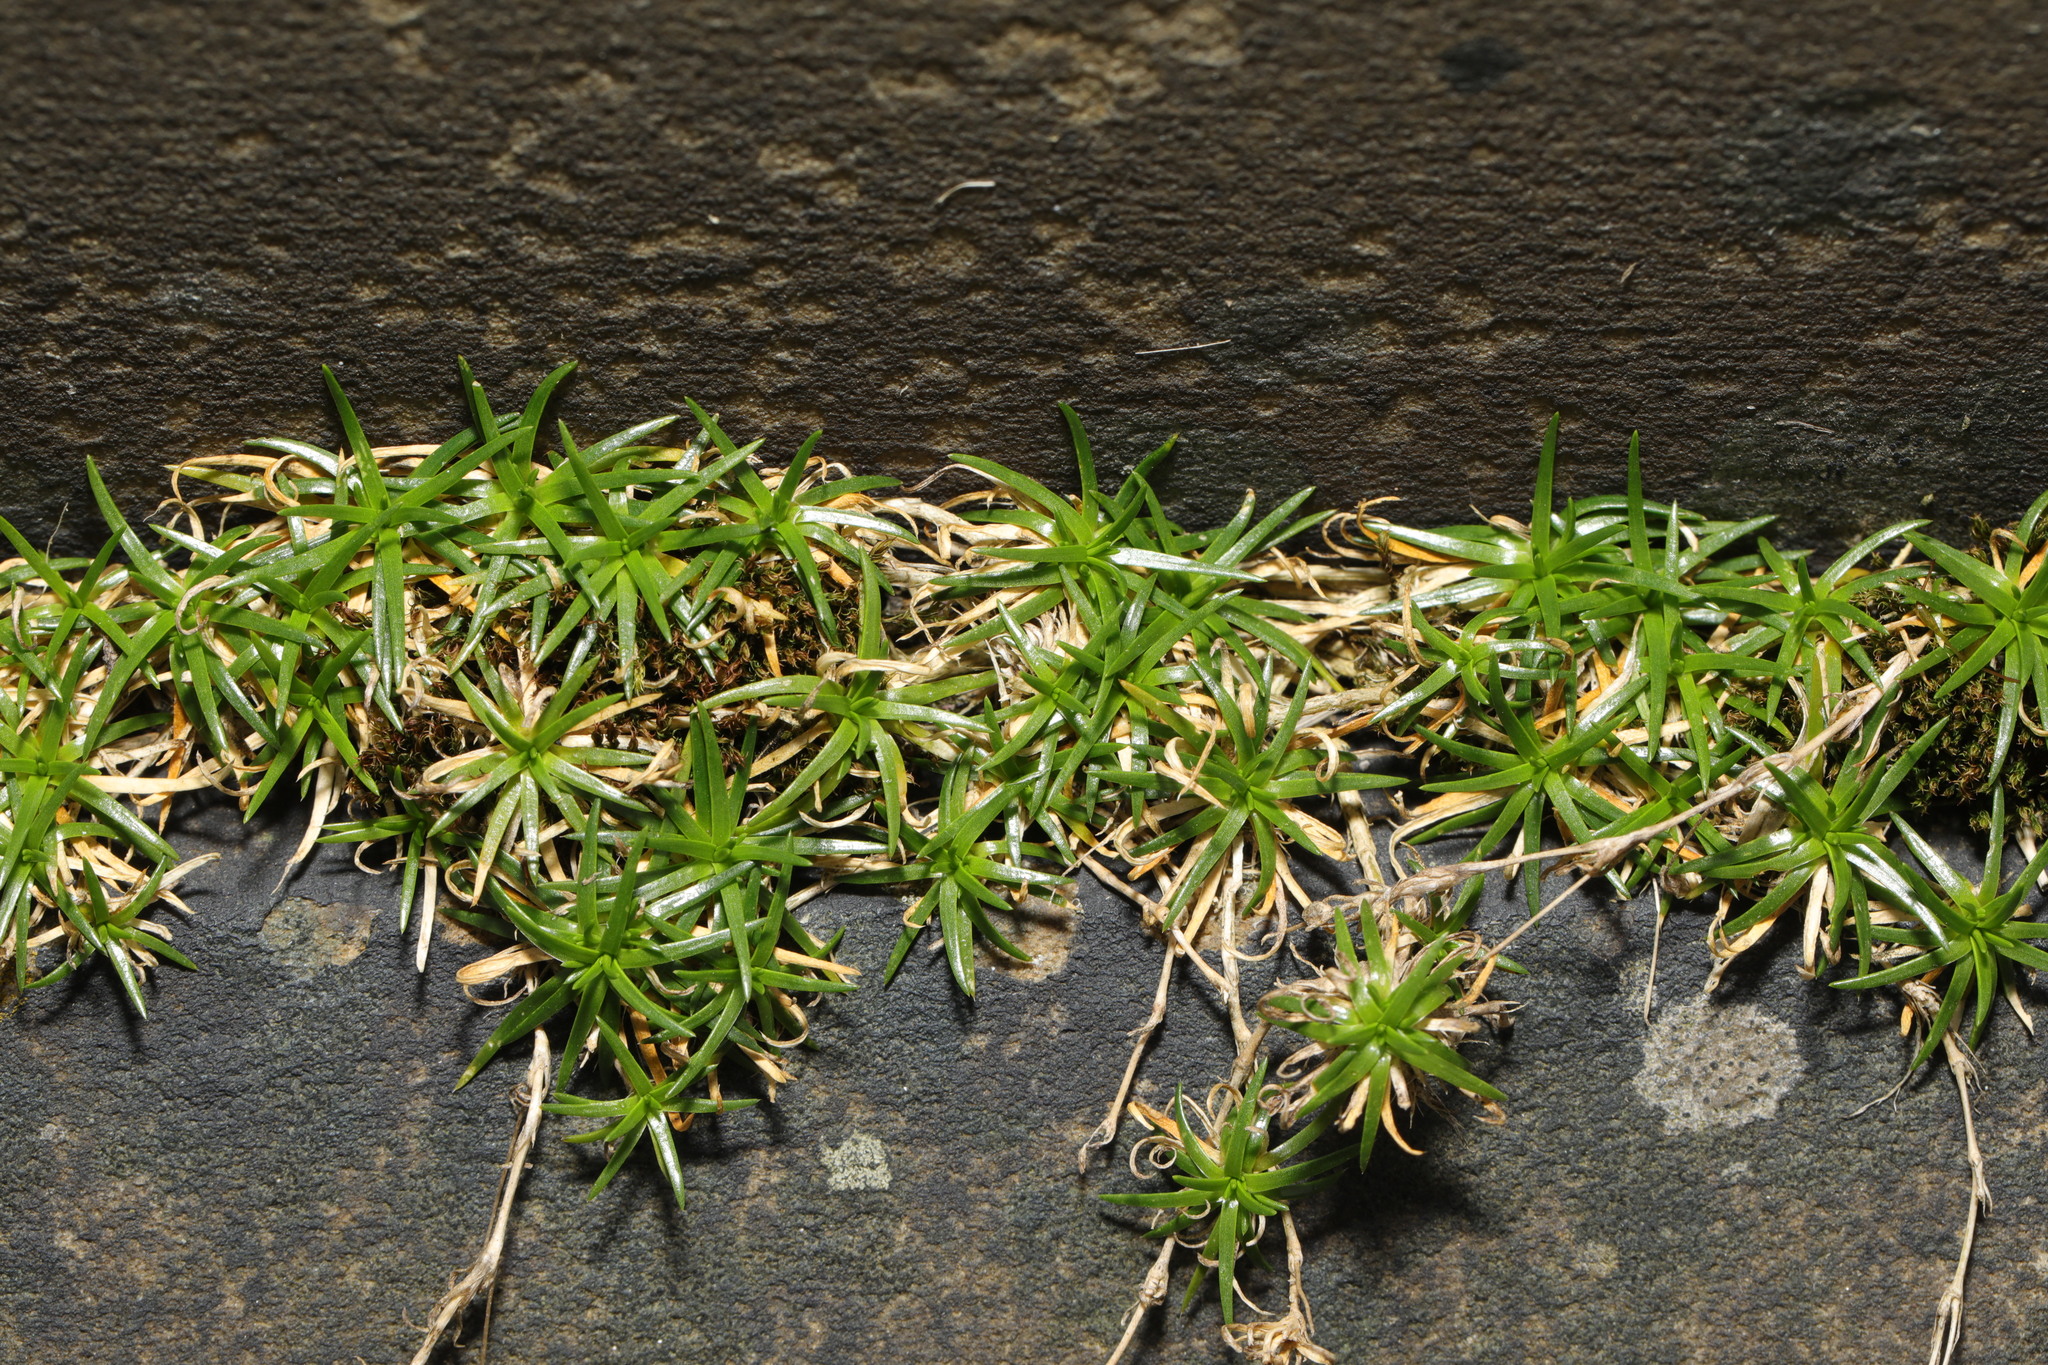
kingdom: Plantae
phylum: Tracheophyta
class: Magnoliopsida
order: Caryophyllales
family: Caryophyllaceae
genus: Sagina
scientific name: Sagina procumbens
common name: Procumbent pearlwort
